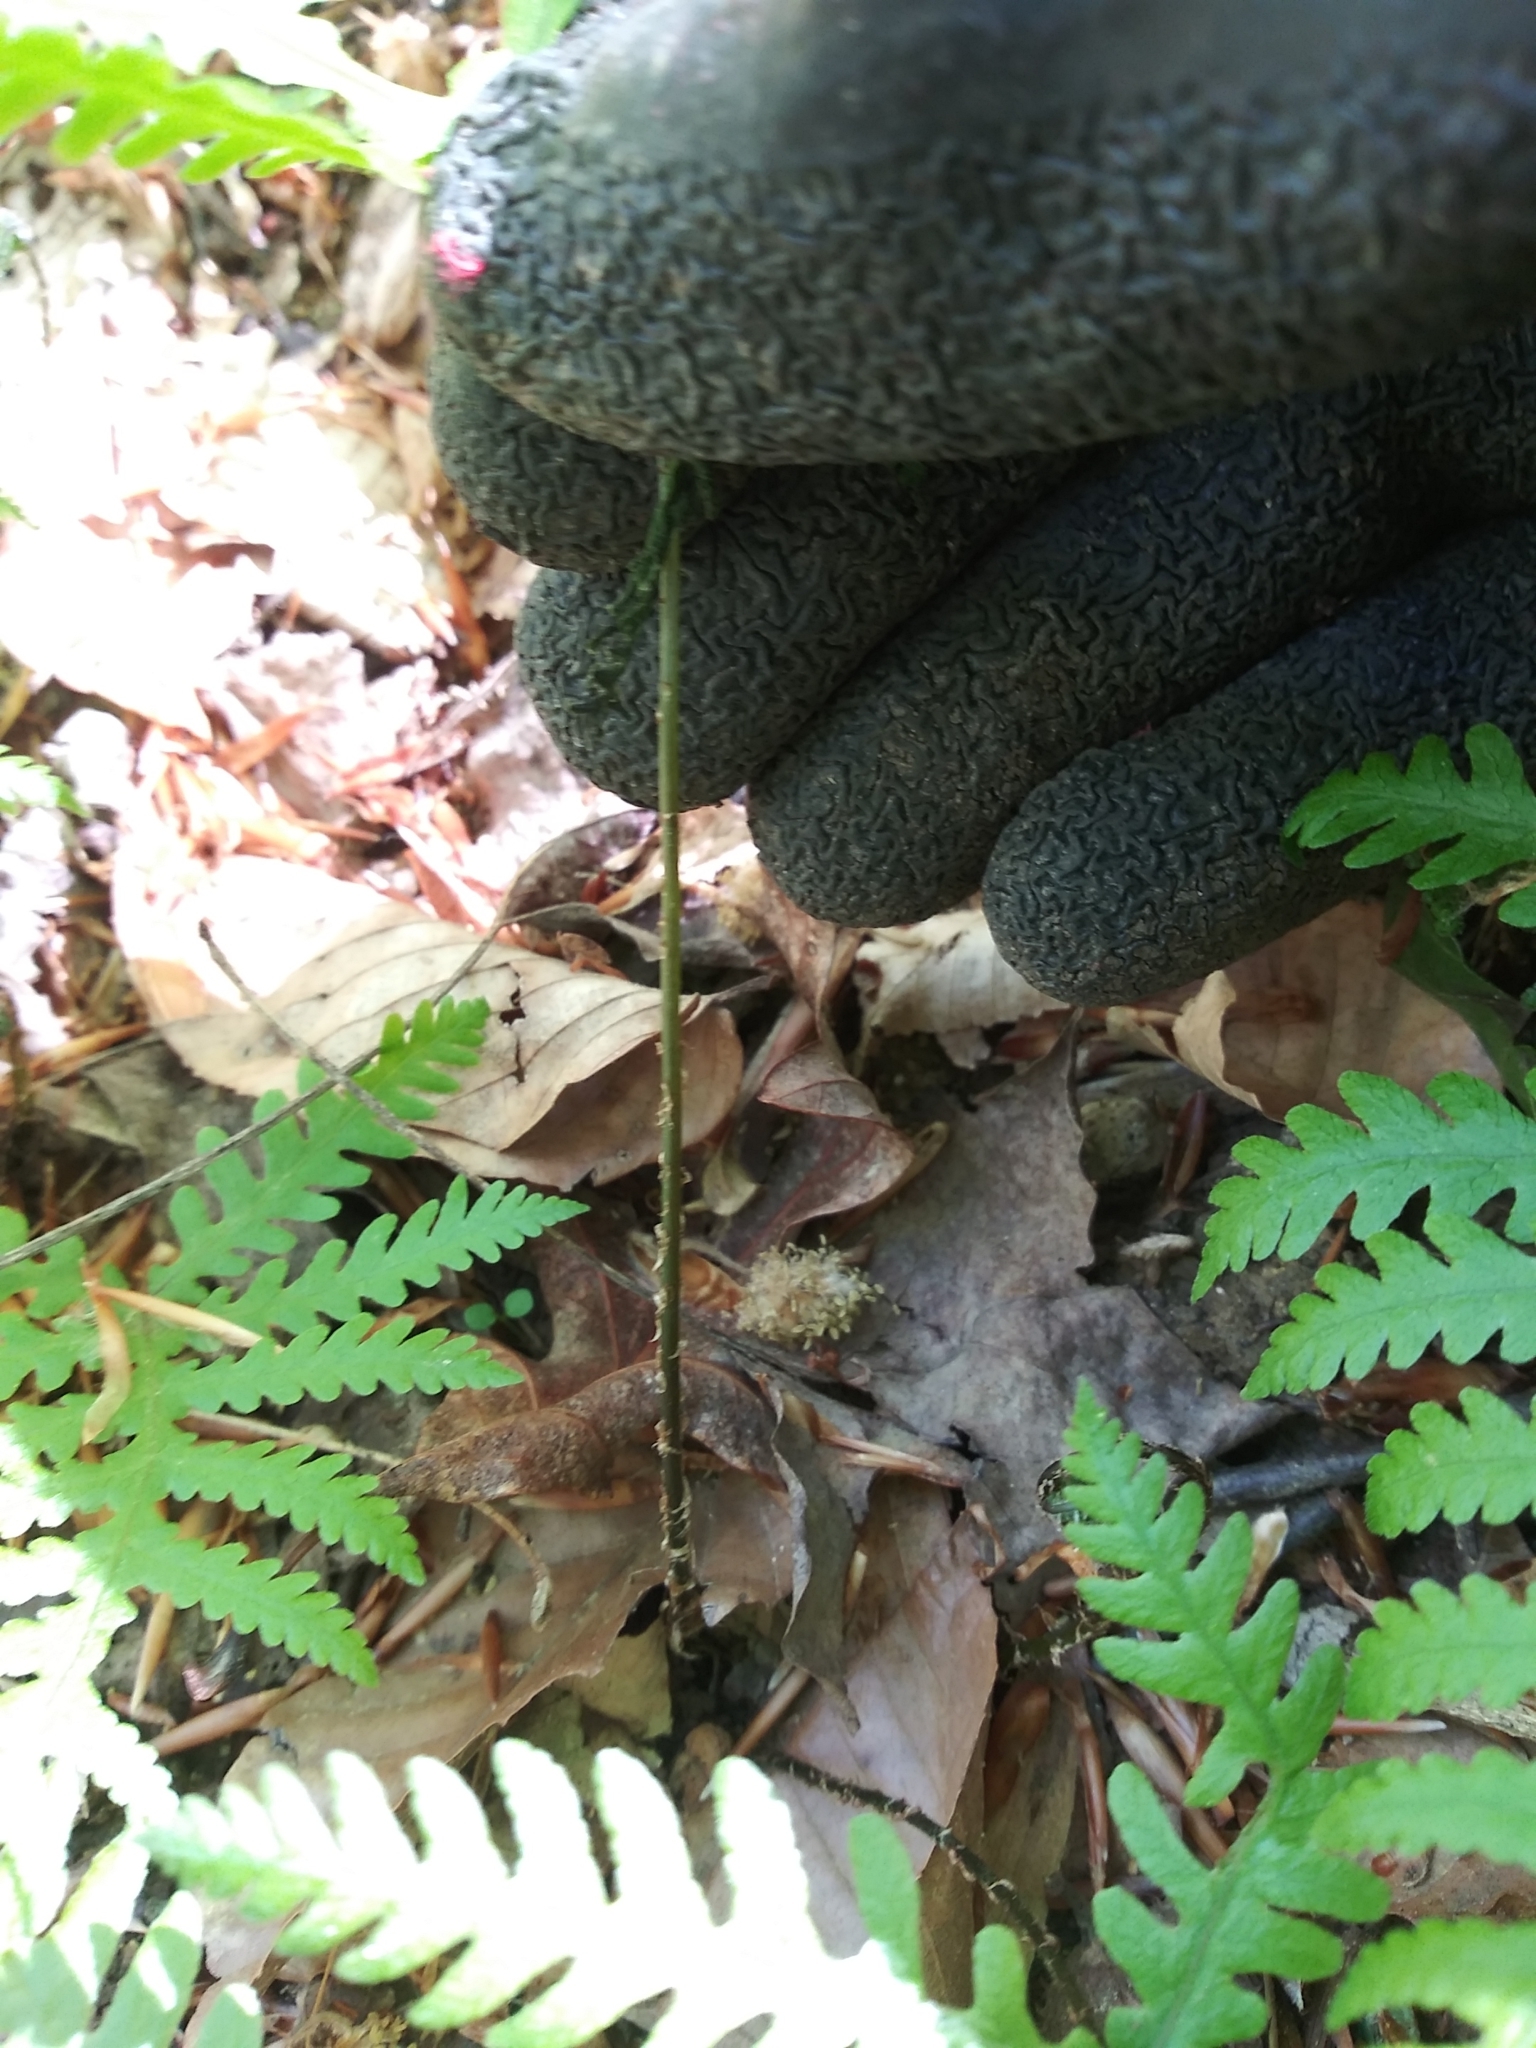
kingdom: Plantae
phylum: Tracheophyta
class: Polypodiopsida
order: Polypodiales
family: Thelypteridaceae
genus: Phegopteris
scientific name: Phegopteris hexagonoptera
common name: Broad beech fern
